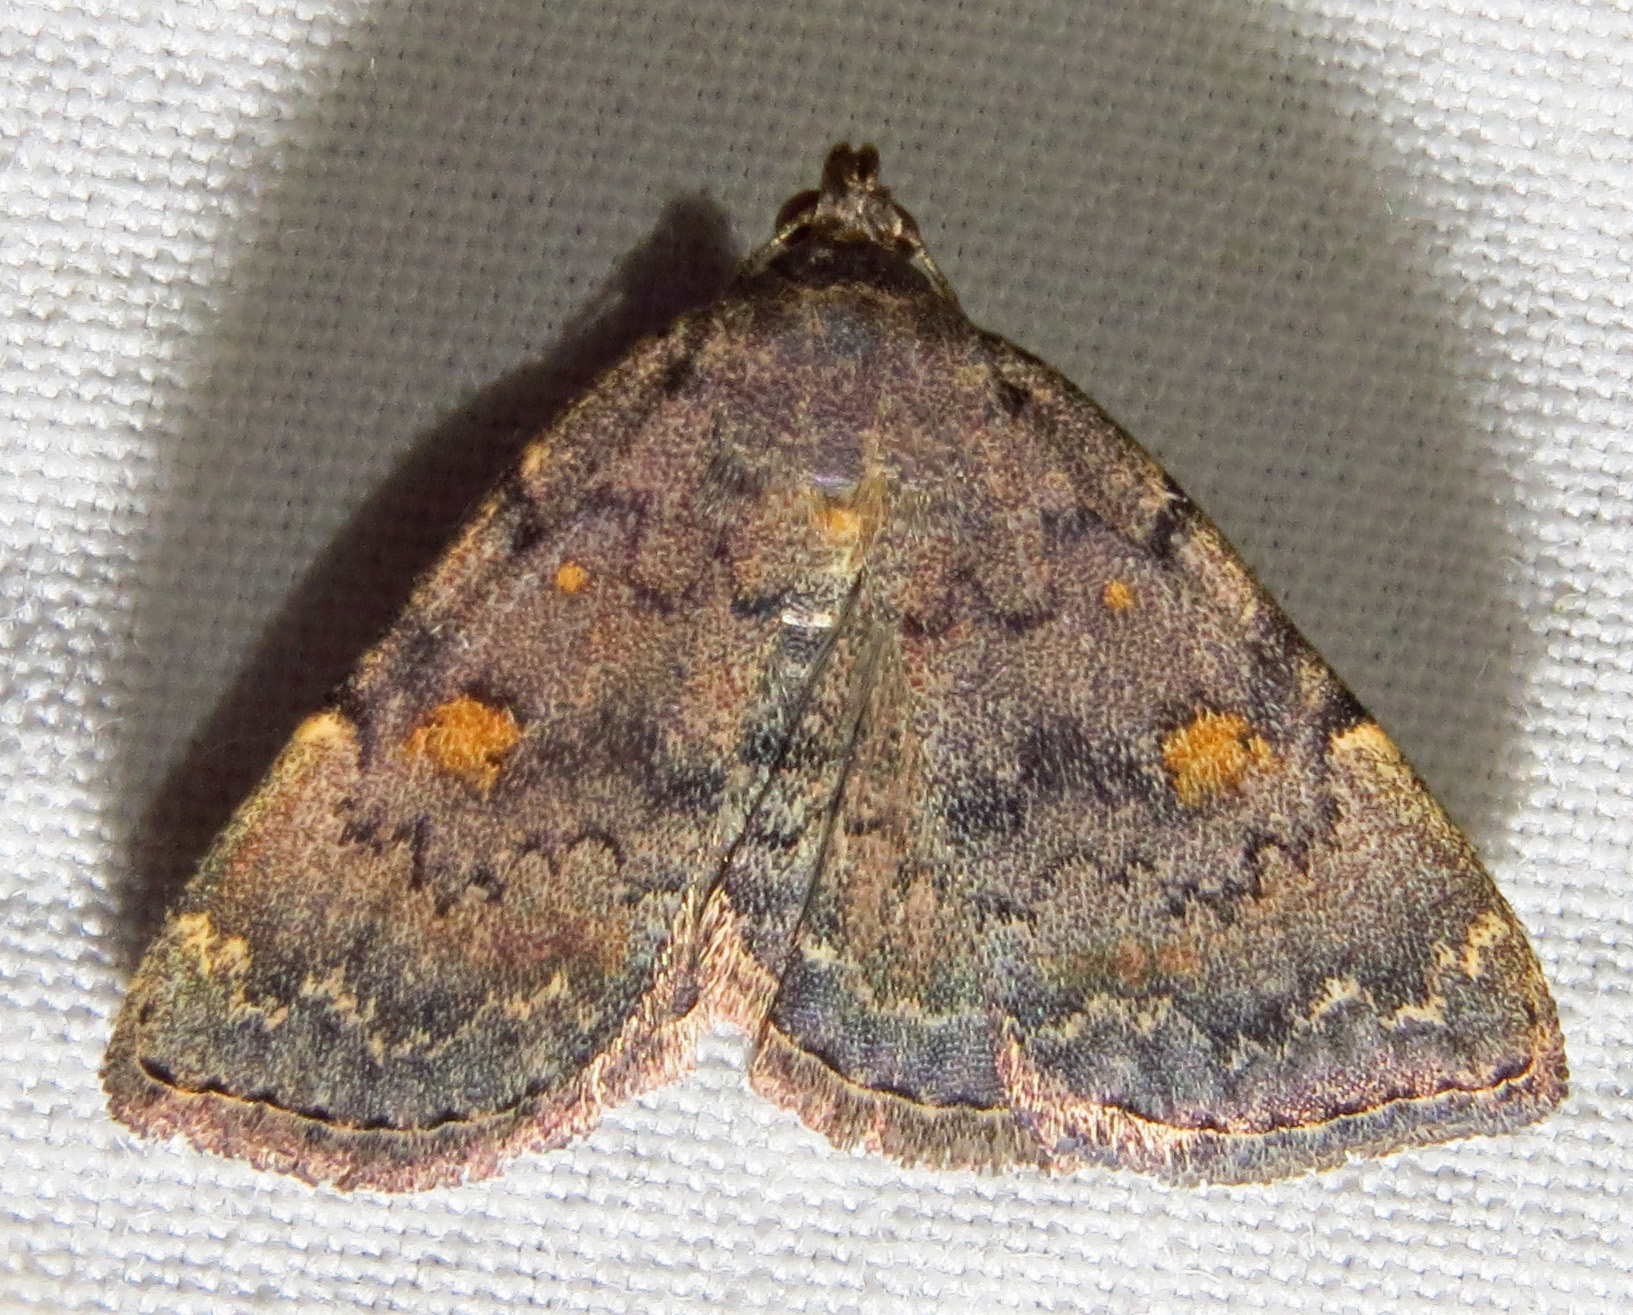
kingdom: Animalia
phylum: Arthropoda
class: Insecta
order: Lepidoptera
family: Erebidae
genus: Idia
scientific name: Idia aemula
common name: Common idia moth
